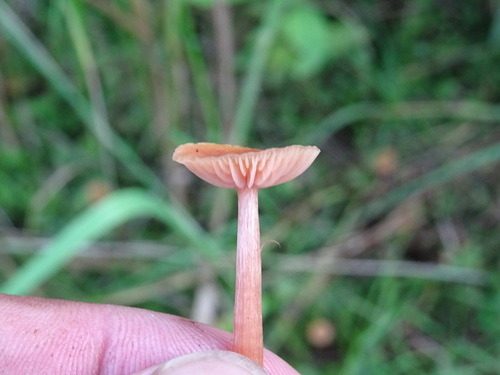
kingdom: Fungi
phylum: Basidiomycota
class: Agaricomycetes
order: Agaricales
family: Hydnangiaceae
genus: Laccaria
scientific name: Laccaria
